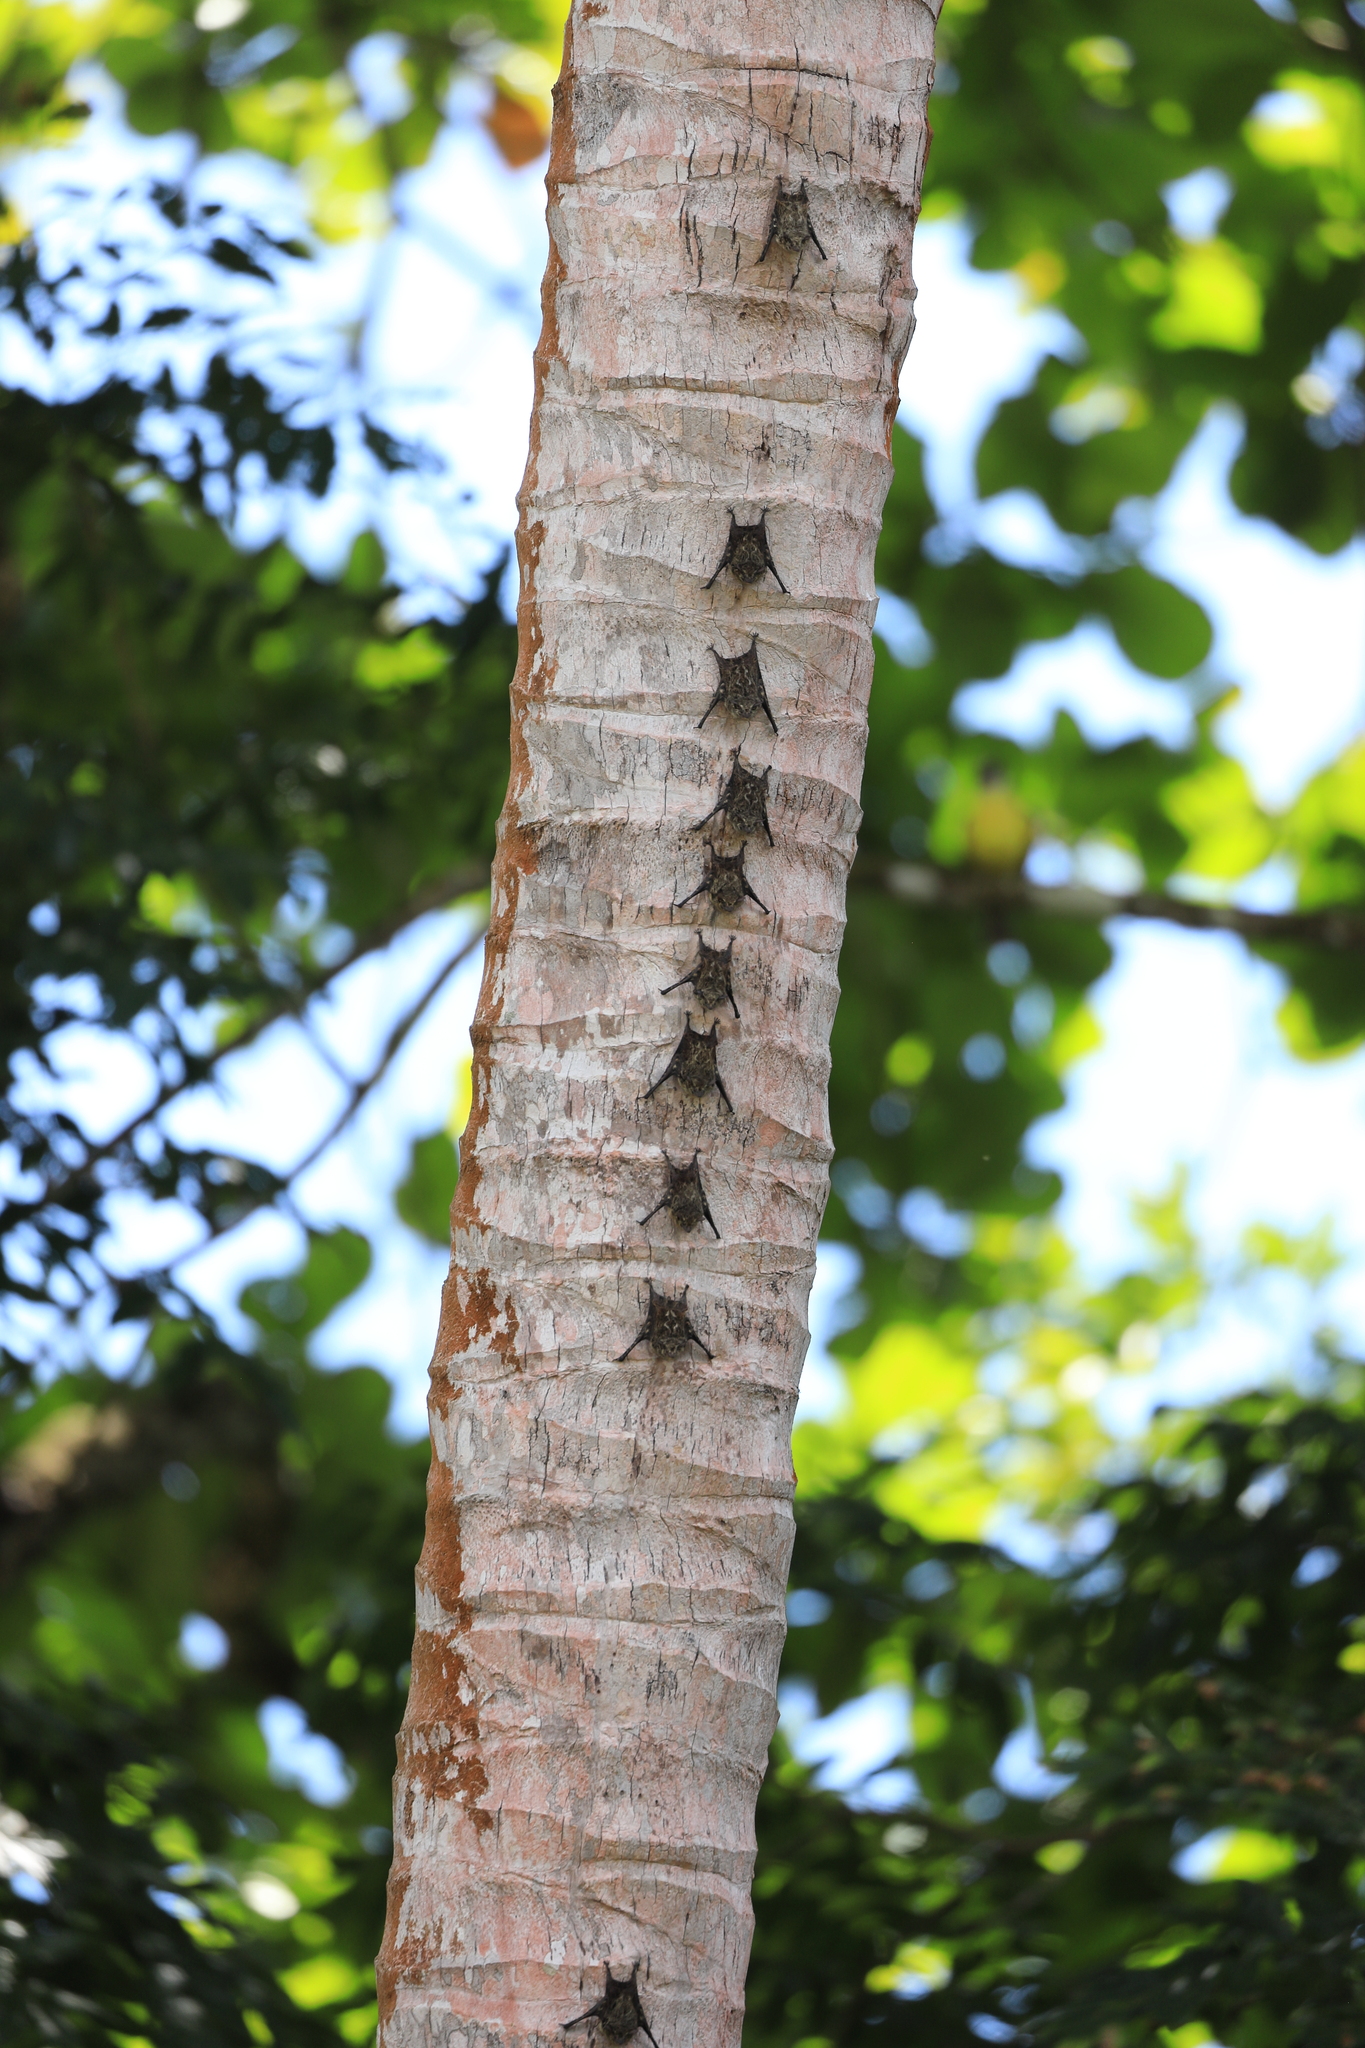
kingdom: Animalia
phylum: Chordata
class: Mammalia
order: Chiroptera
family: Emballonuridae
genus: Rhynchonycteris
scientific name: Rhynchonycteris naso
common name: Proboscis bat
